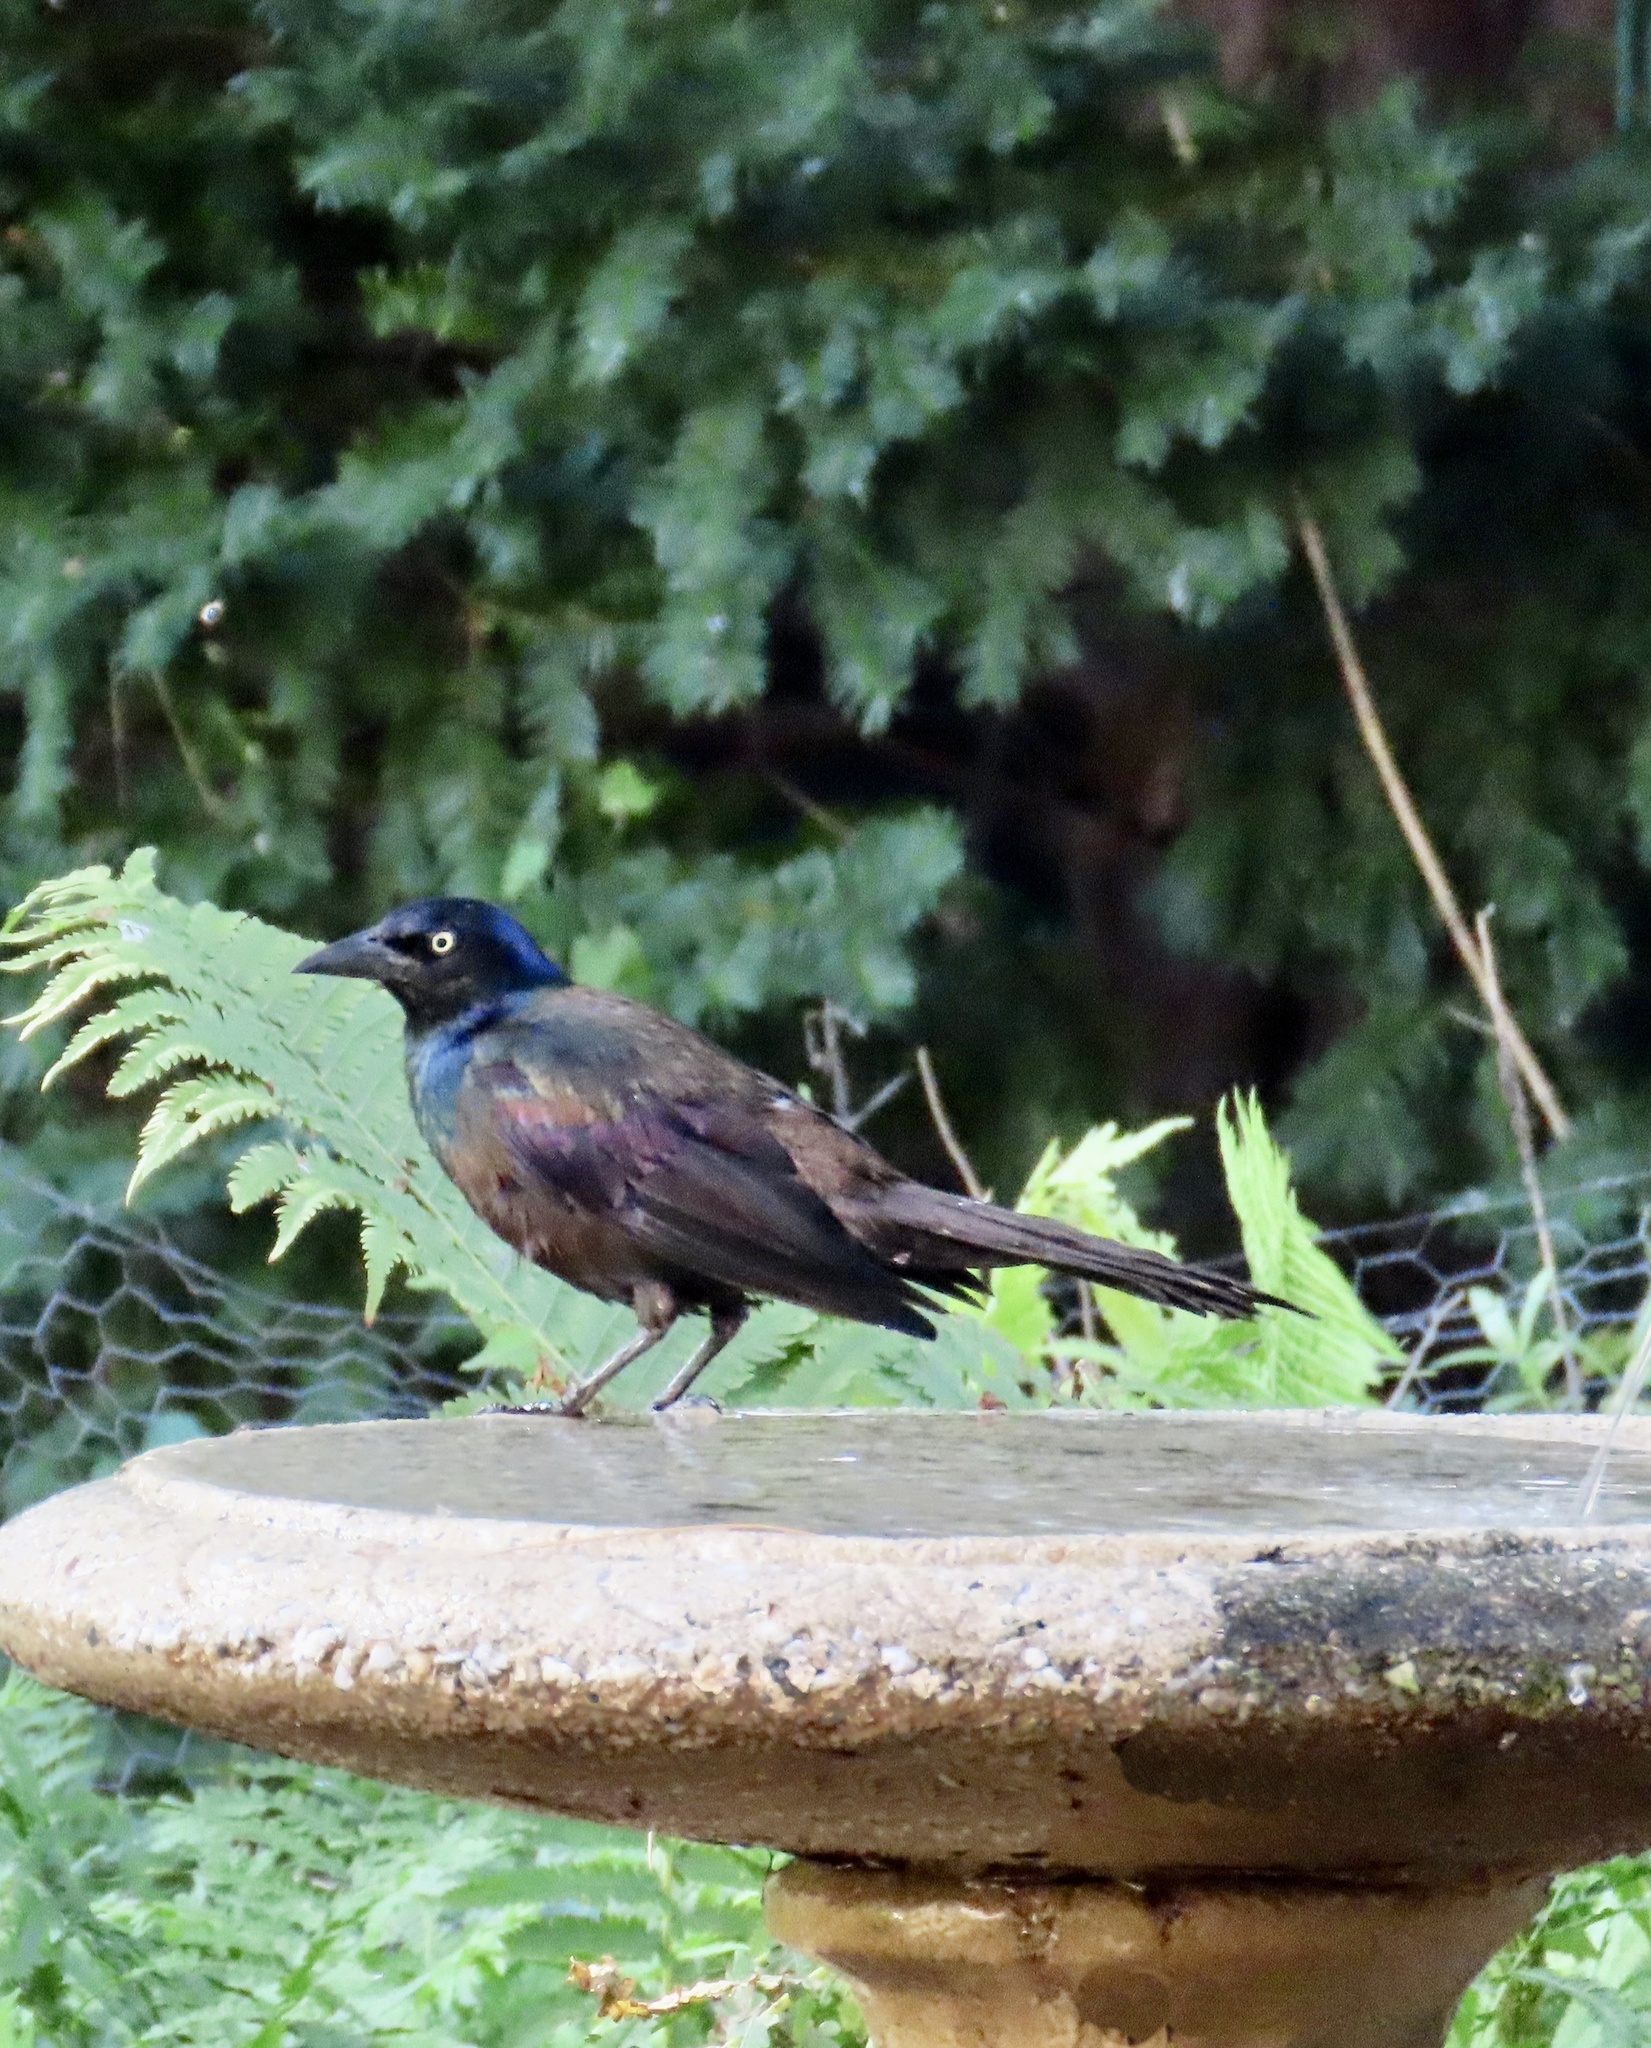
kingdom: Animalia
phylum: Chordata
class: Aves
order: Passeriformes
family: Icteridae
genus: Quiscalus
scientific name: Quiscalus quiscula
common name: Common grackle
